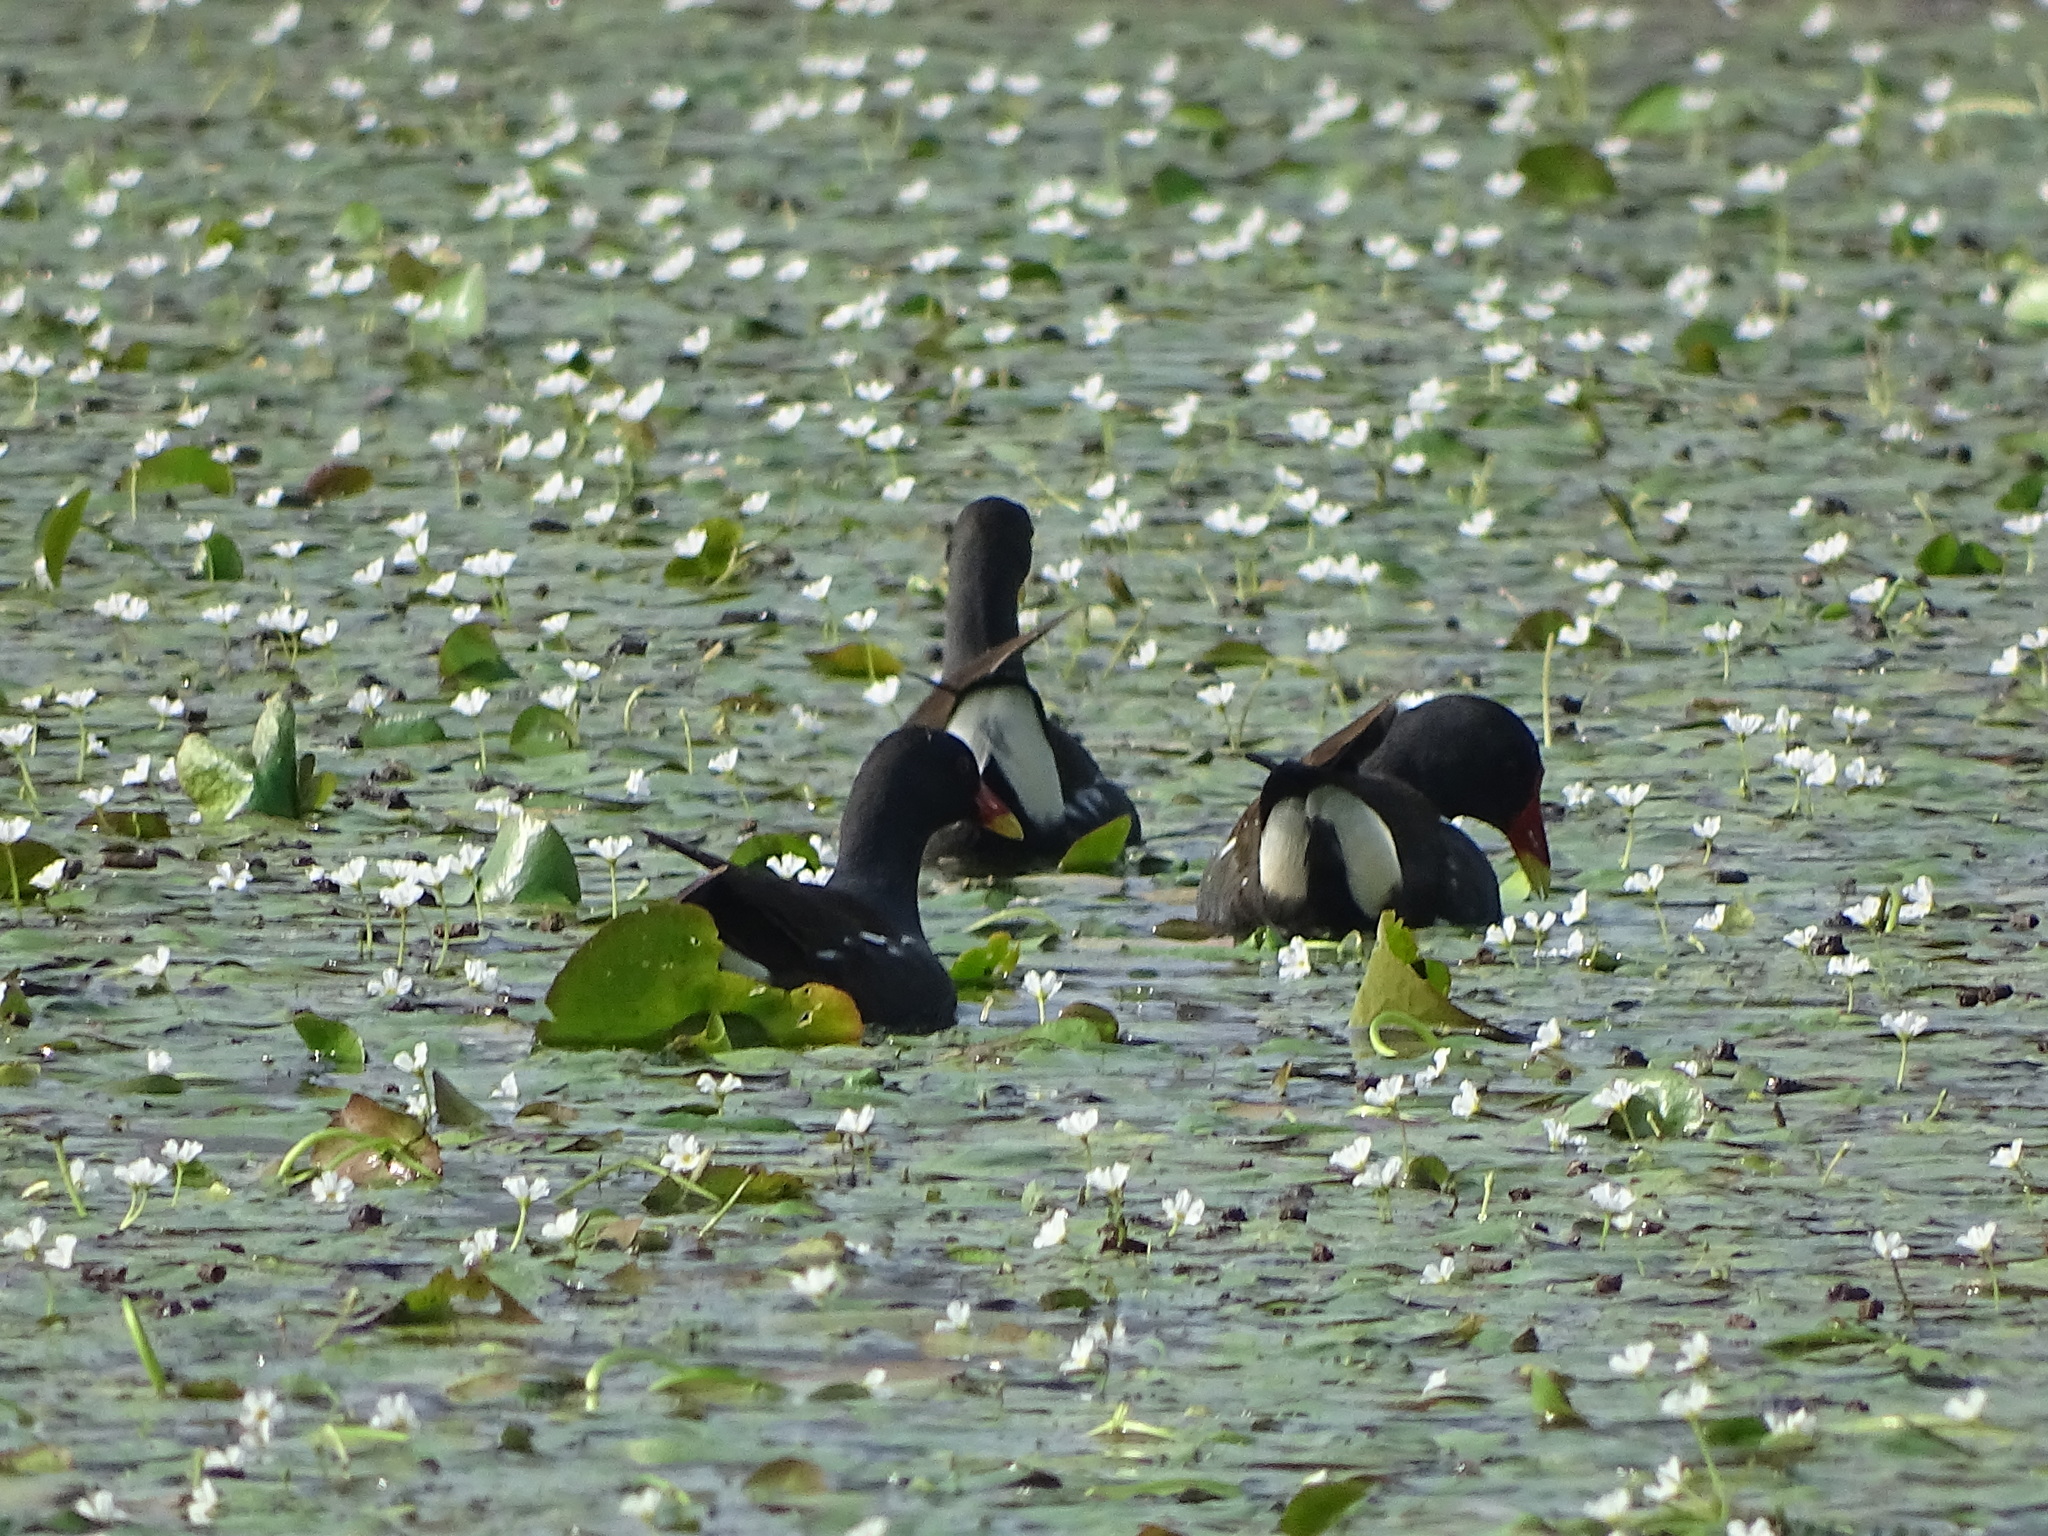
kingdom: Animalia
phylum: Chordata
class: Aves
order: Gruiformes
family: Rallidae
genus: Gallinula
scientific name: Gallinula chloropus
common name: Common moorhen
